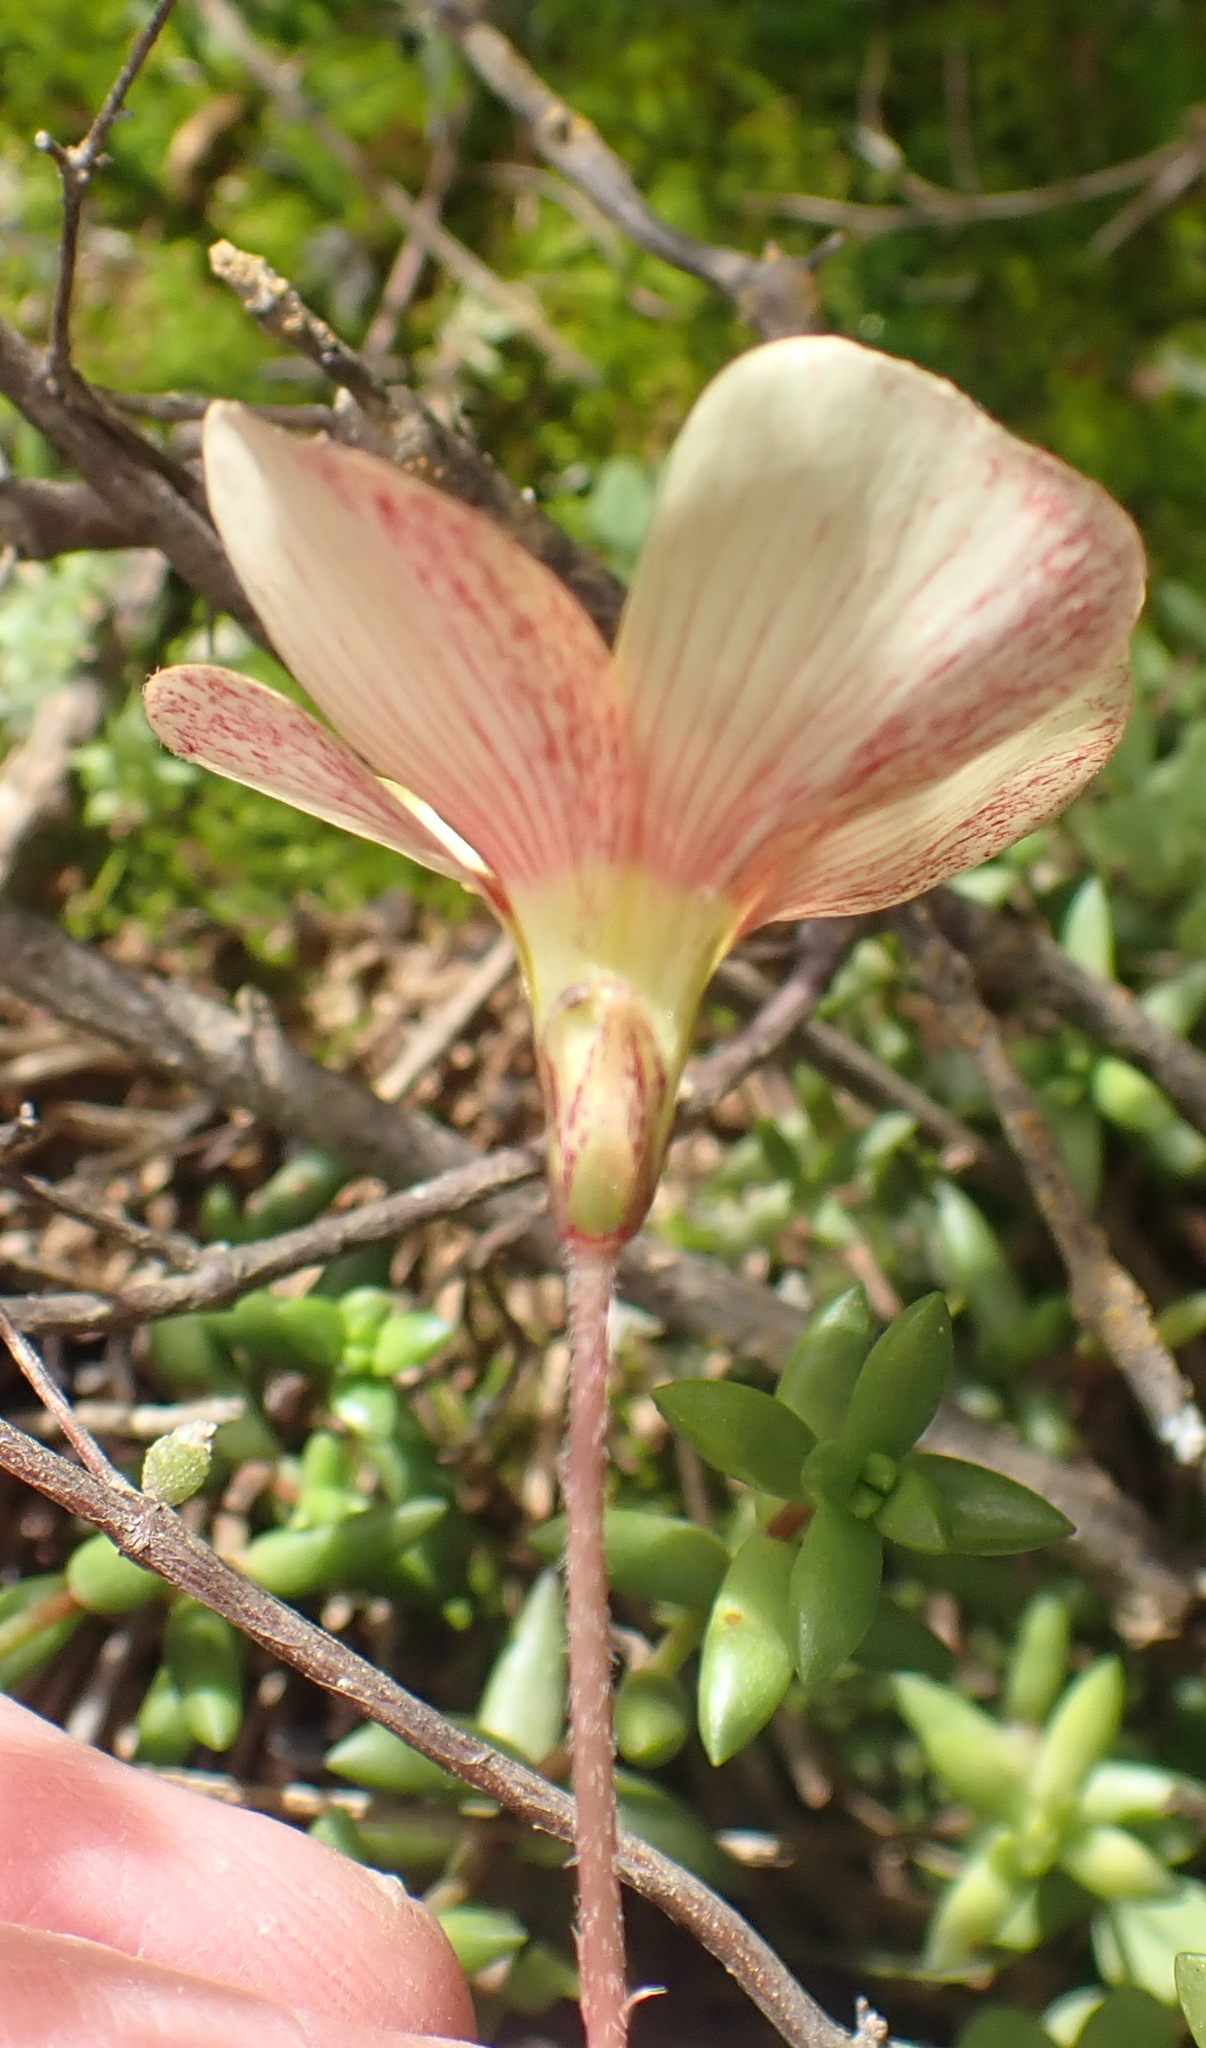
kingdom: Plantae
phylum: Tracheophyta
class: Magnoliopsida
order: Oxalidales
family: Oxalidaceae
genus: Oxalis
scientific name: Oxalis obtusa
